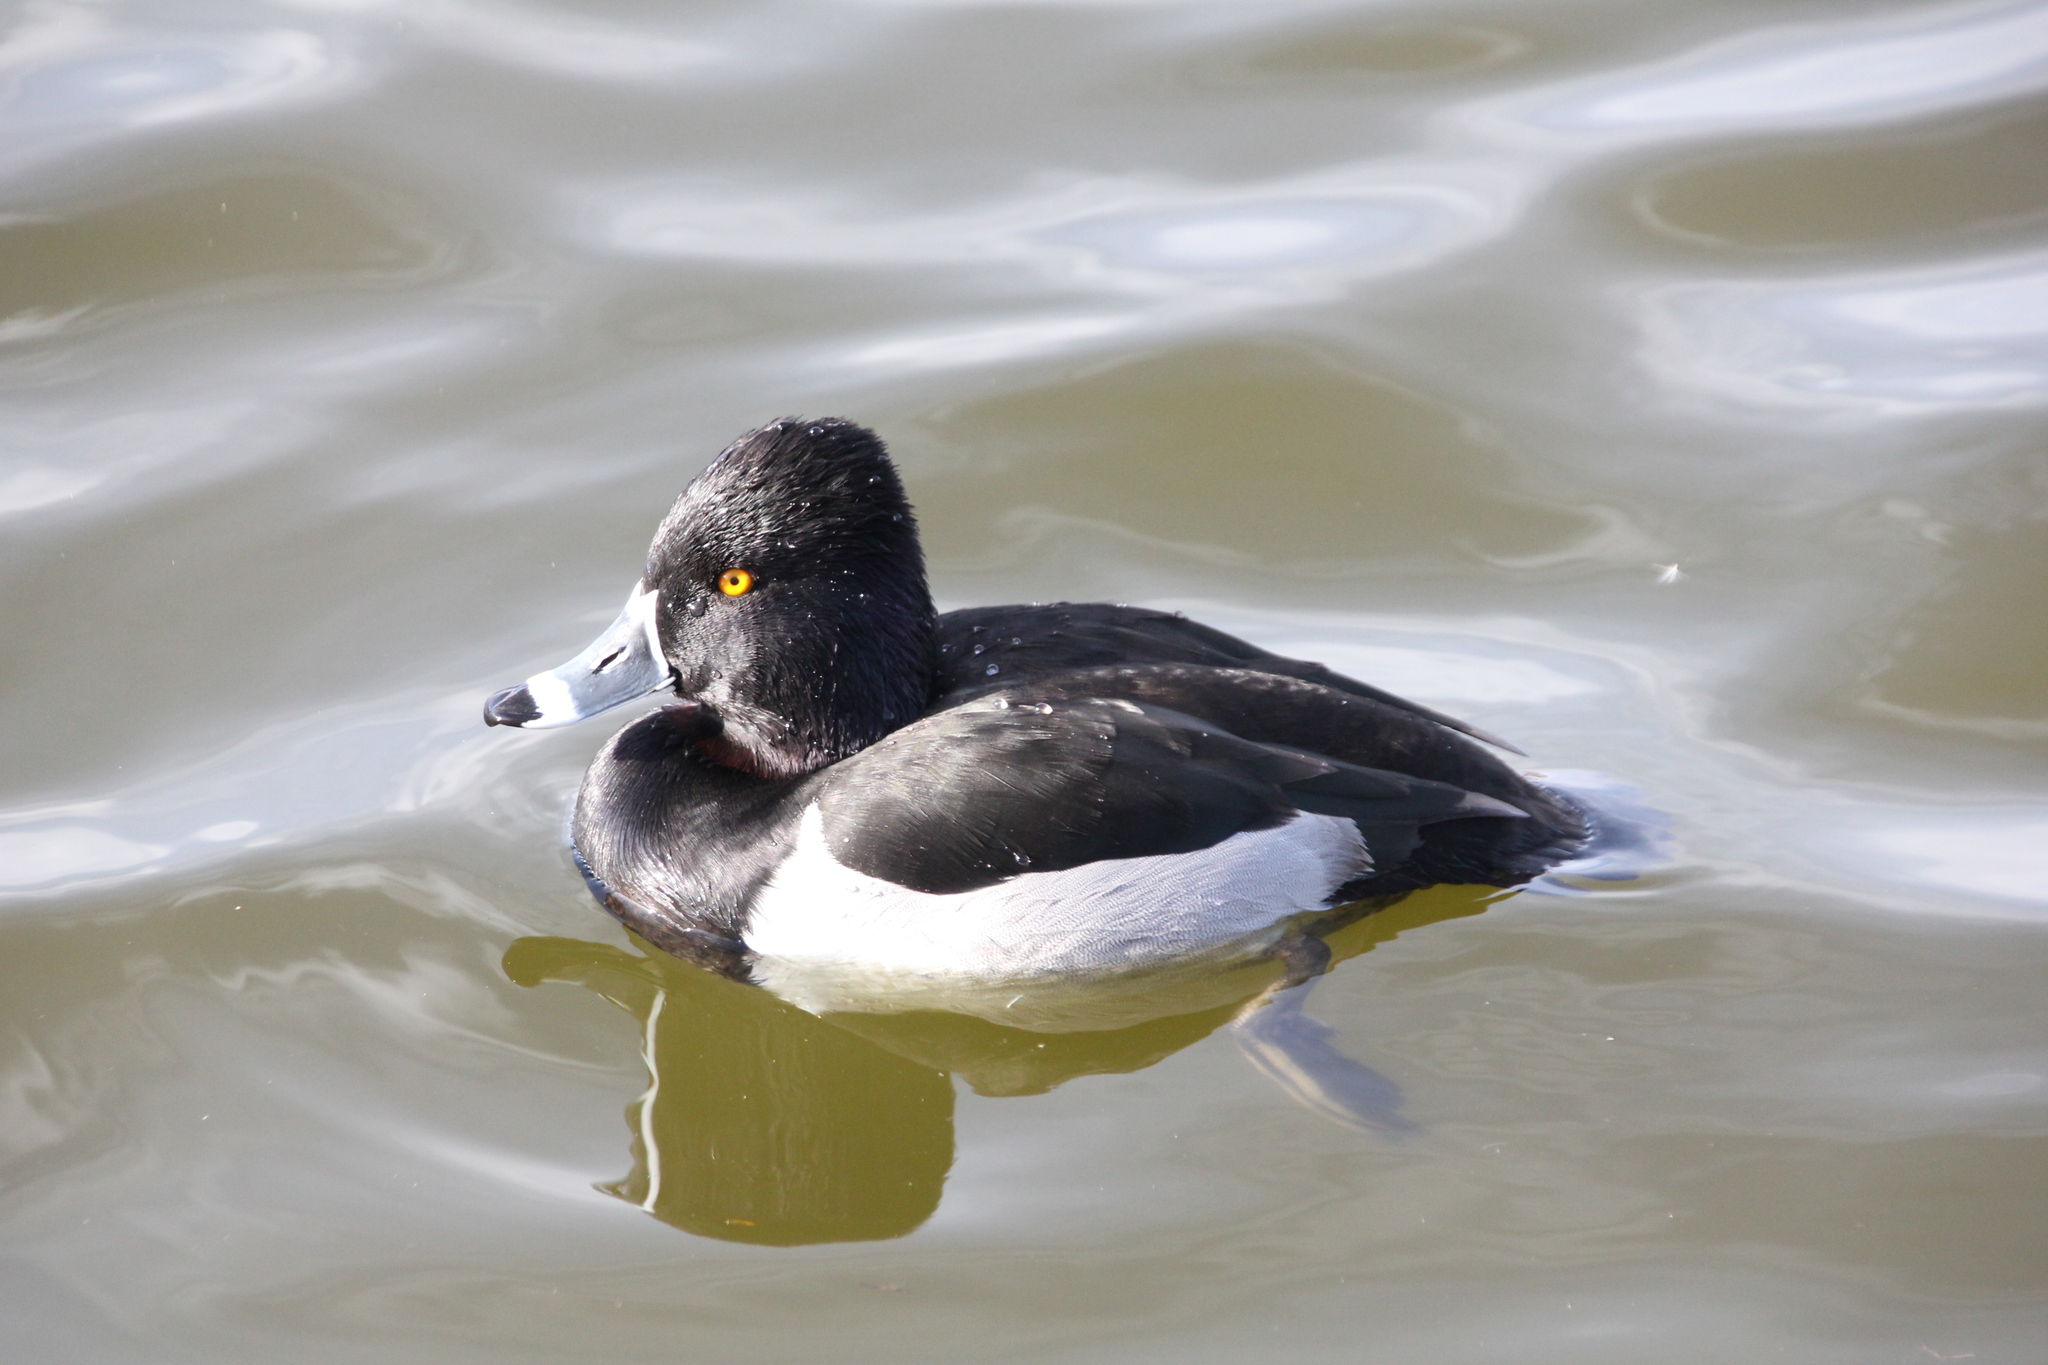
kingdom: Animalia
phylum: Chordata
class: Aves
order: Anseriformes
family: Anatidae
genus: Aythya
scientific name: Aythya collaris
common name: Ring-necked duck
